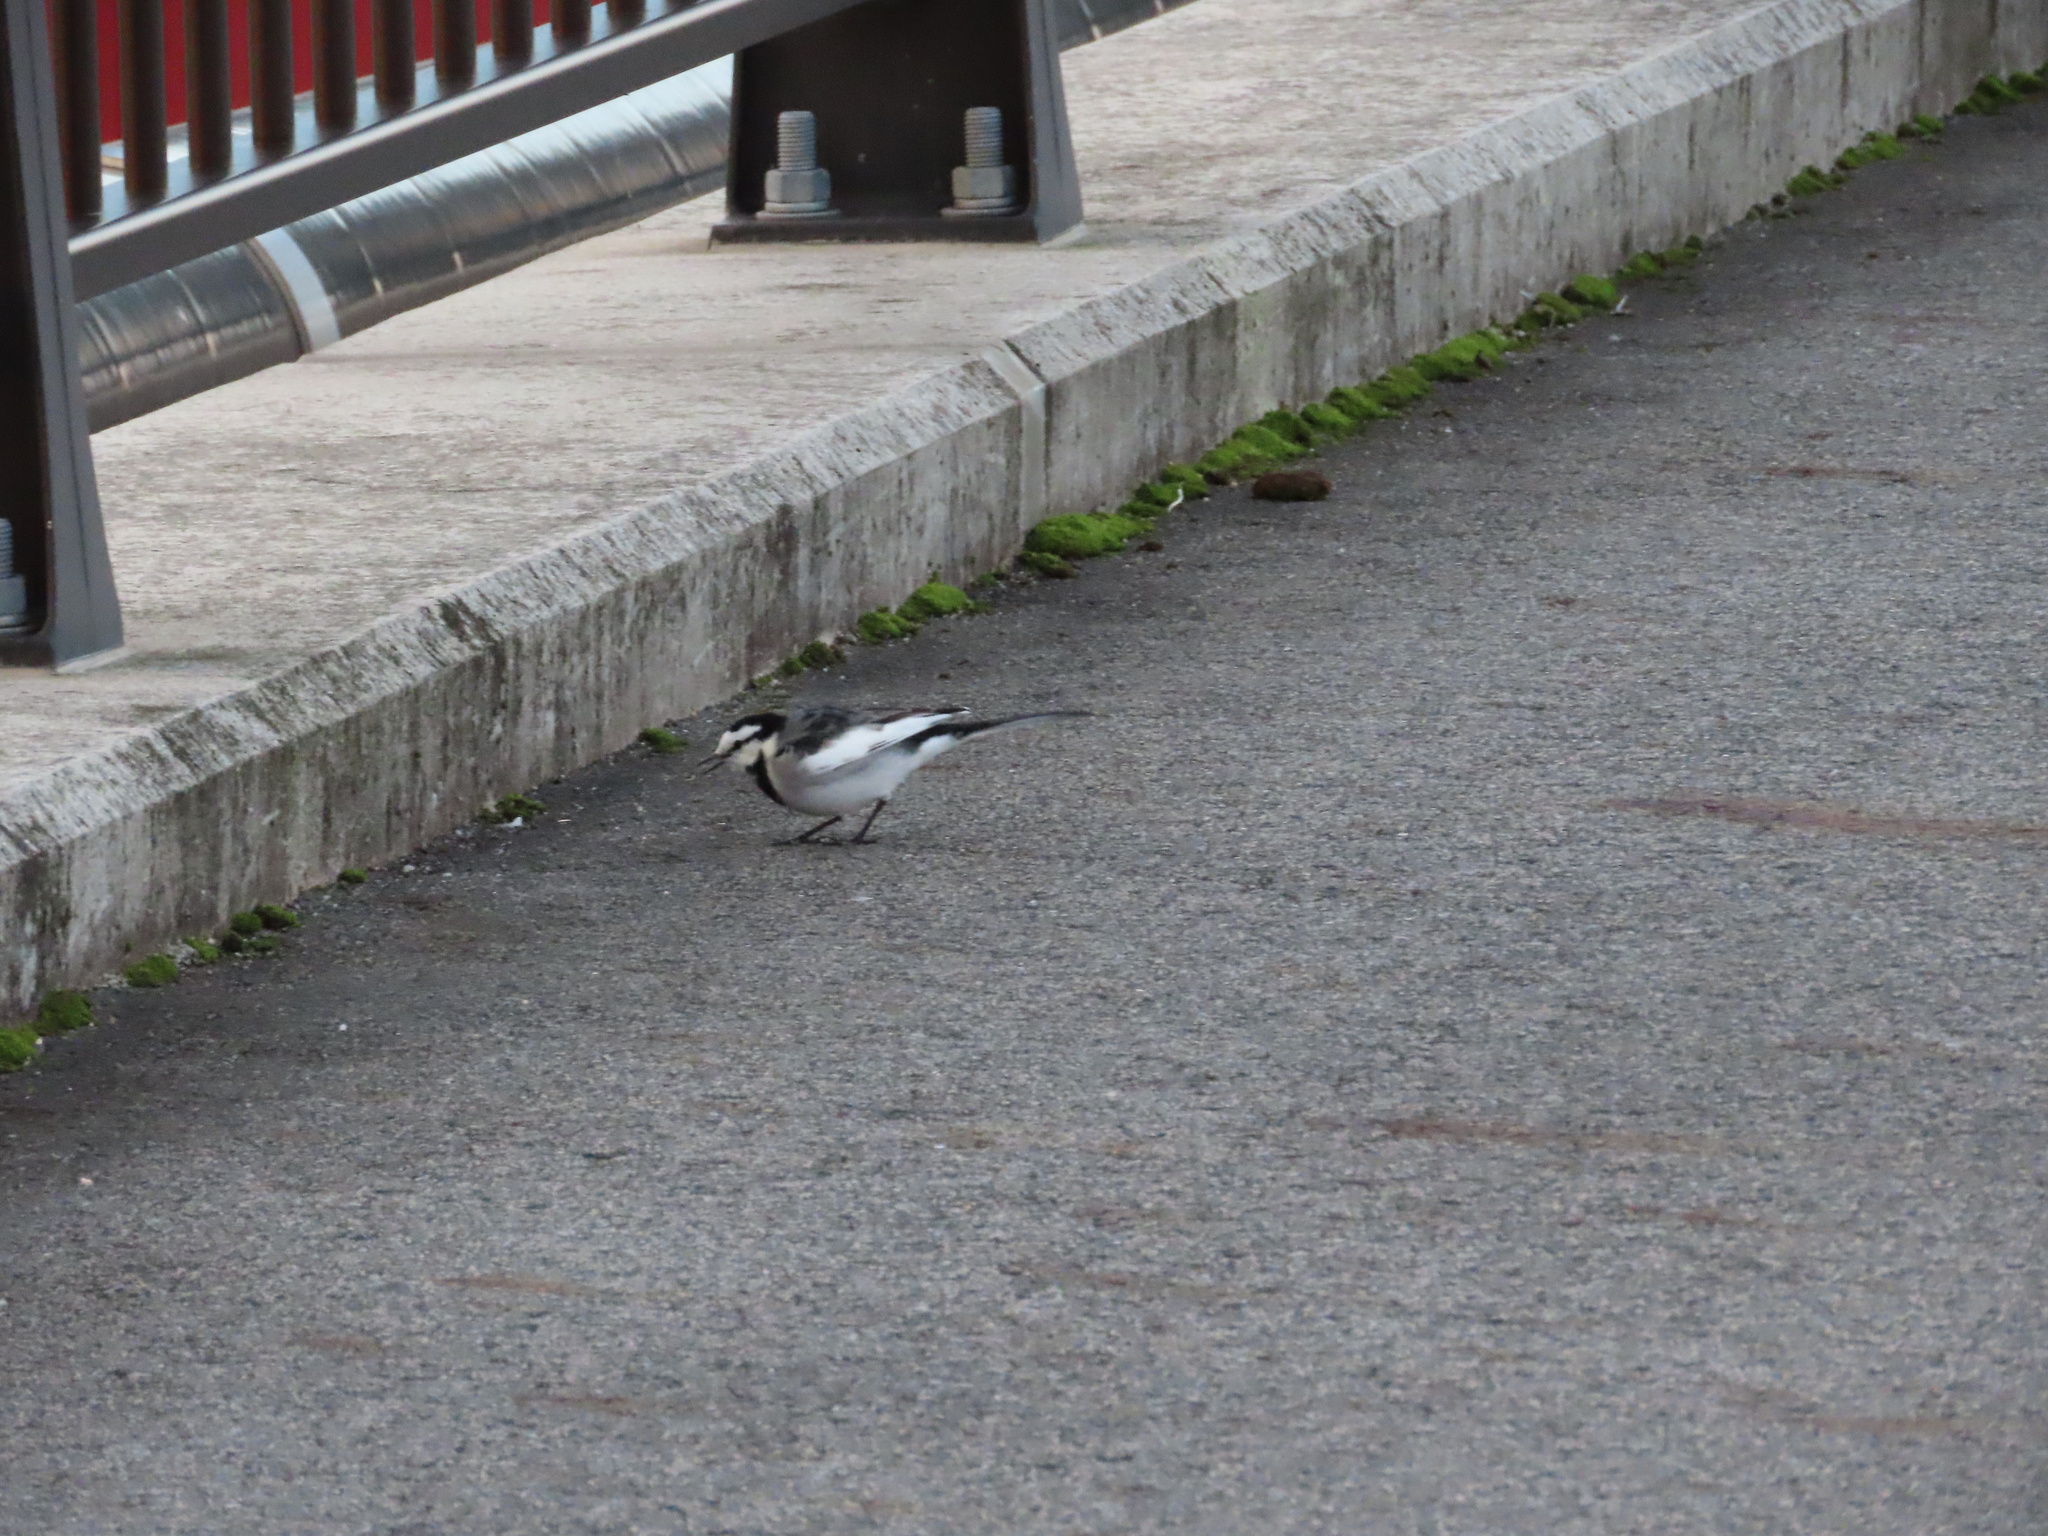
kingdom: Animalia
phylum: Chordata
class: Aves
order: Passeriformes
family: Motacillidae
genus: Motacilla
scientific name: Motacilla alba
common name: White wagtail
